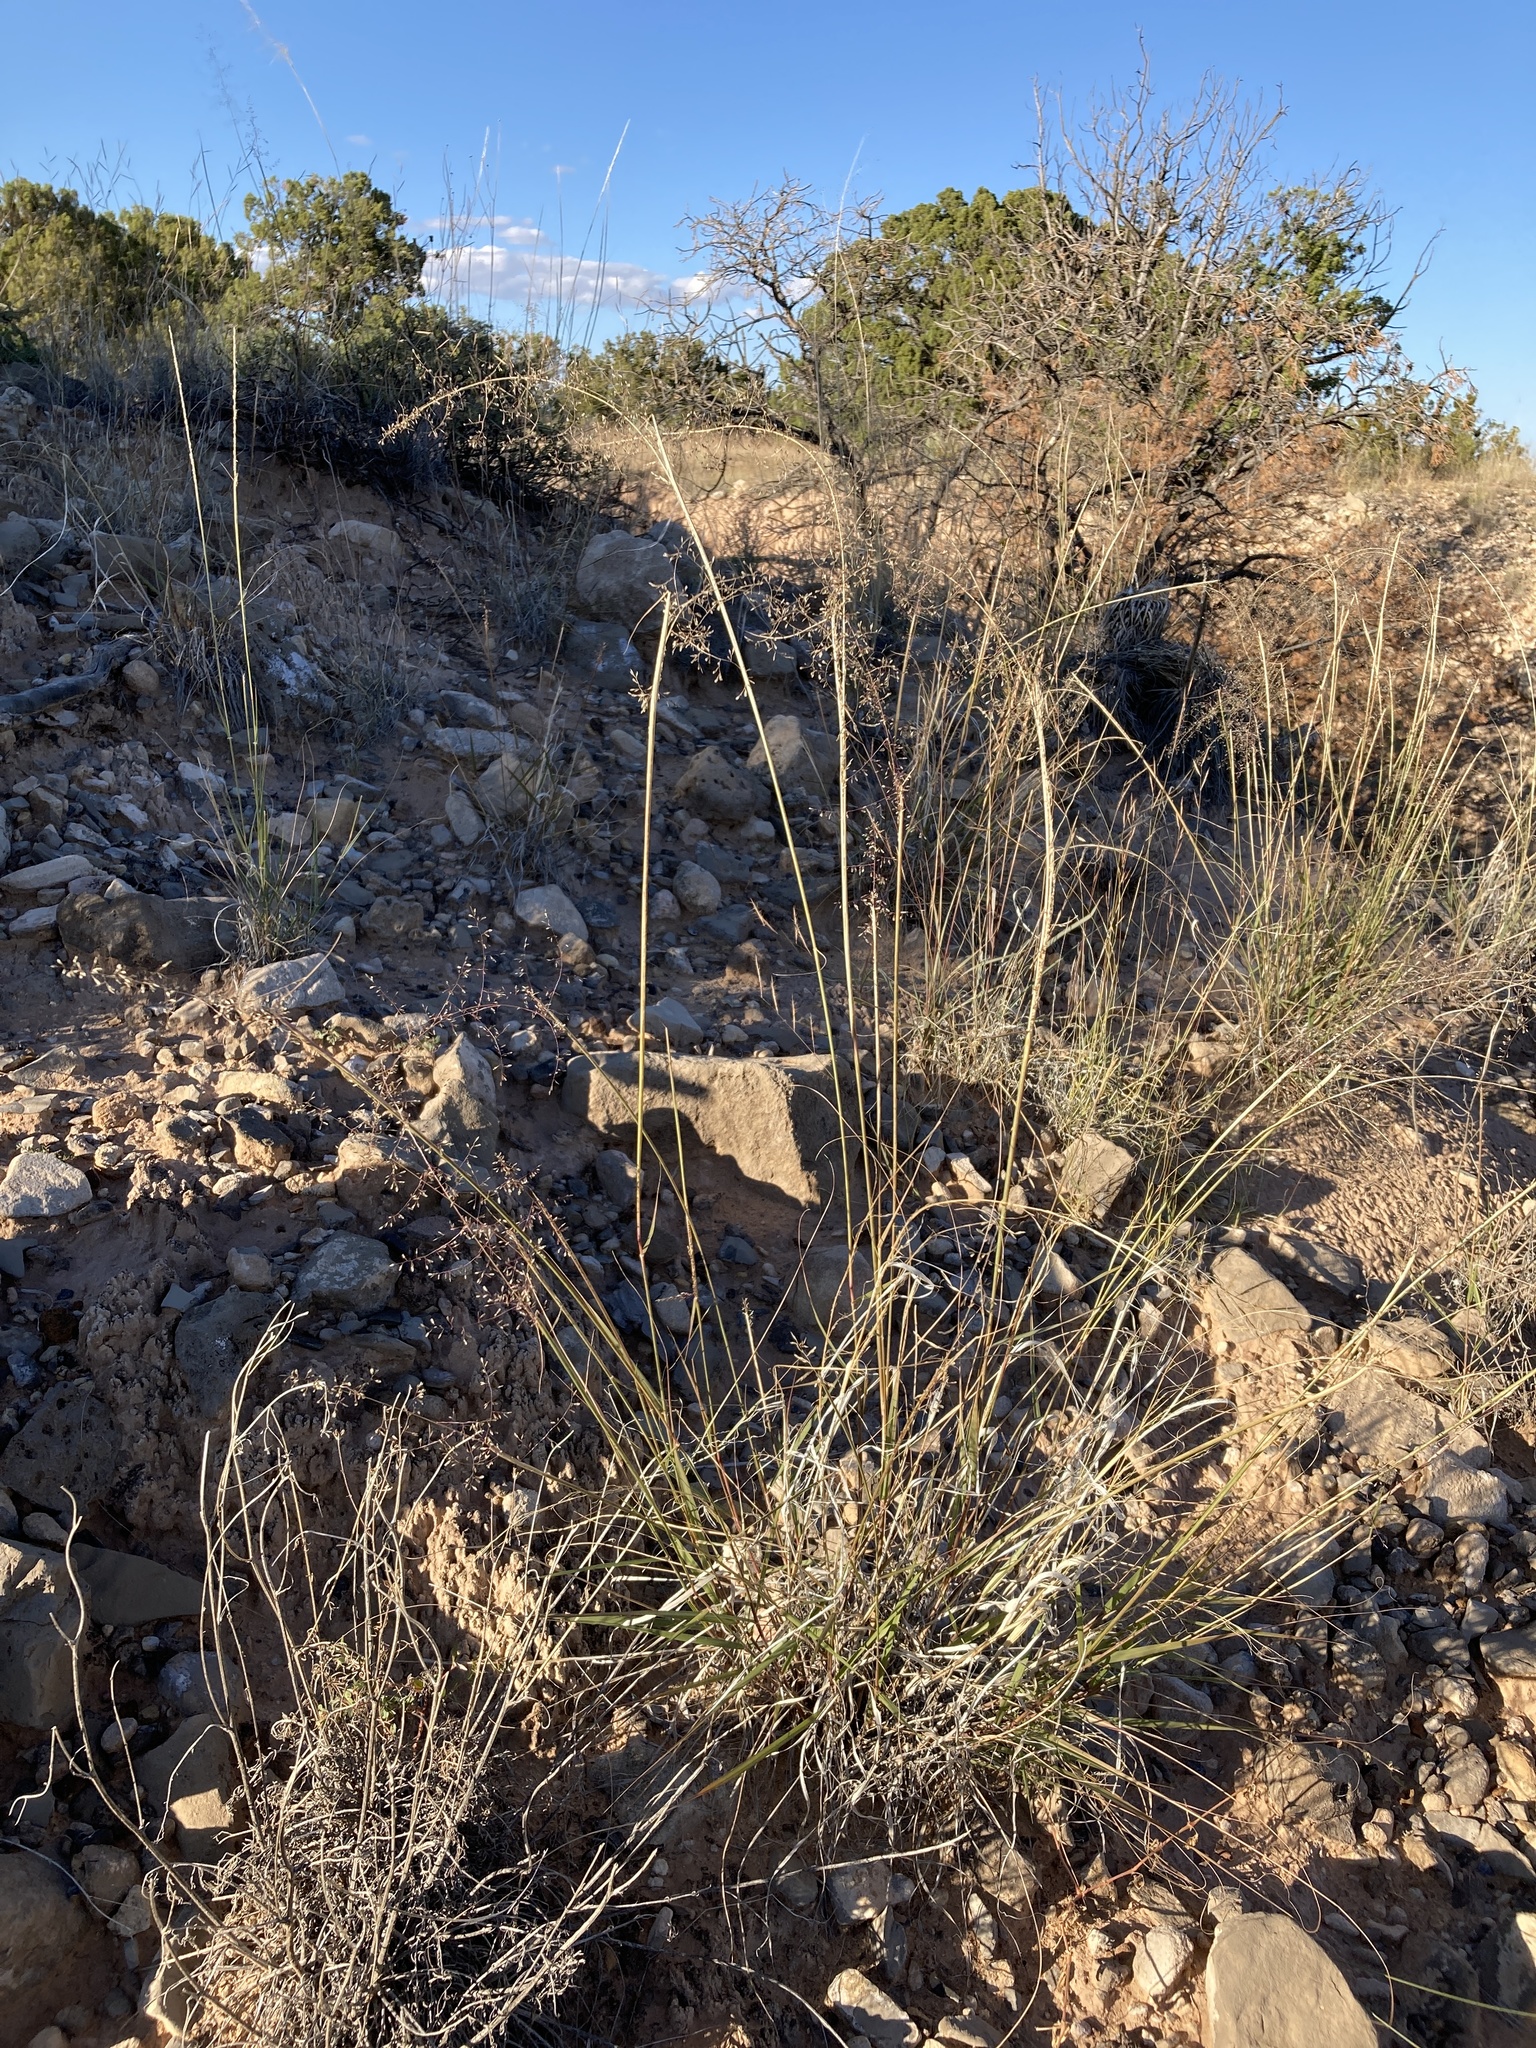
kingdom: Plantae
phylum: Tracheophyta
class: Liliopsida
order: Poales
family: Poaceae
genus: Sporobolus
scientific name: Sporobolus flexuosus
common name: Mesa dropseed
